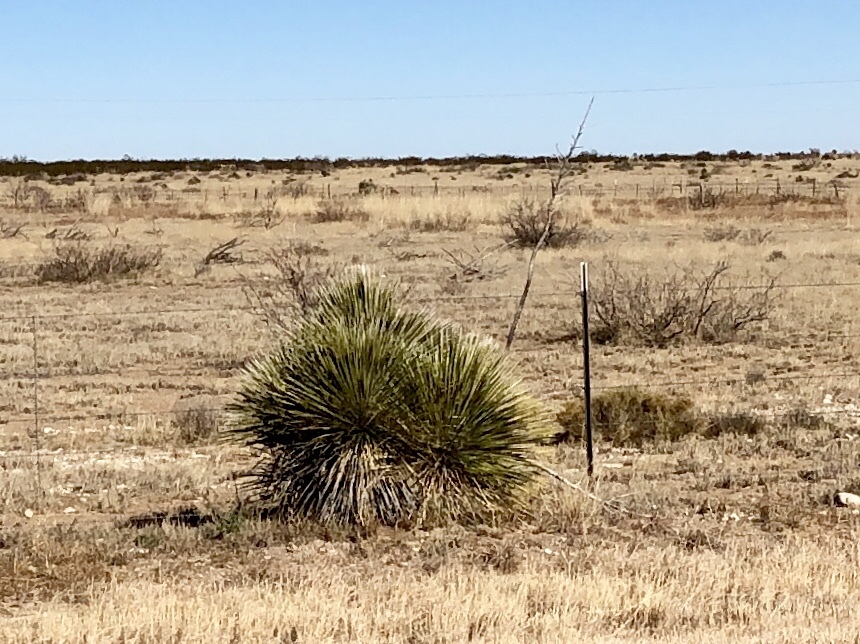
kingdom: Plantae
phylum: Tracheophyta
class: Liliopsida
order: Asparagales
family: Asparagaceae
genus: Yucca
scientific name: Yucca elata
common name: Palmella
